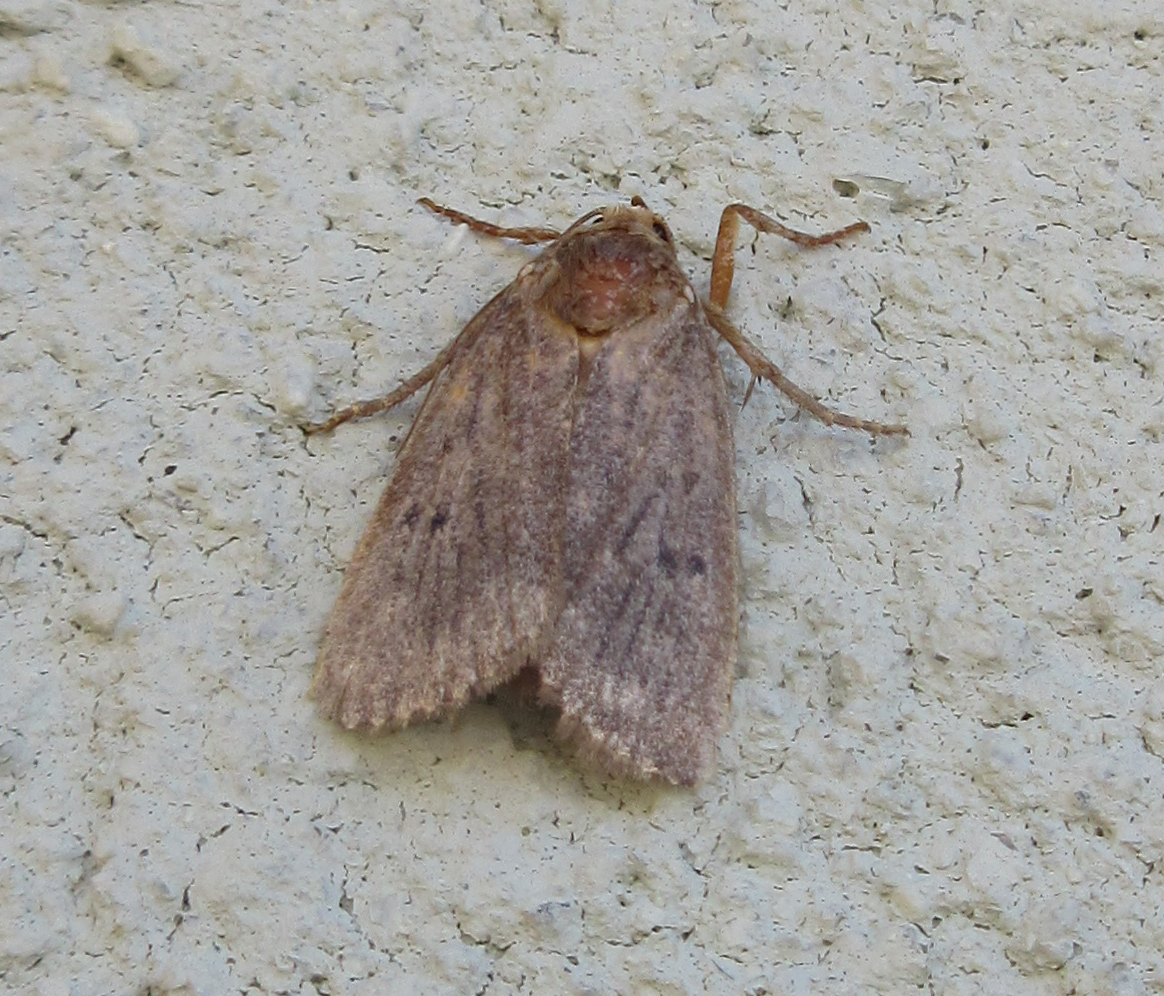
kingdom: Animalia
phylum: Arthropoda
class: Insecta
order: Lepidoptera
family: Noctuidae
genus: Amphipyra
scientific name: Amphipyra tragopoginis
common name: Mouse moth
